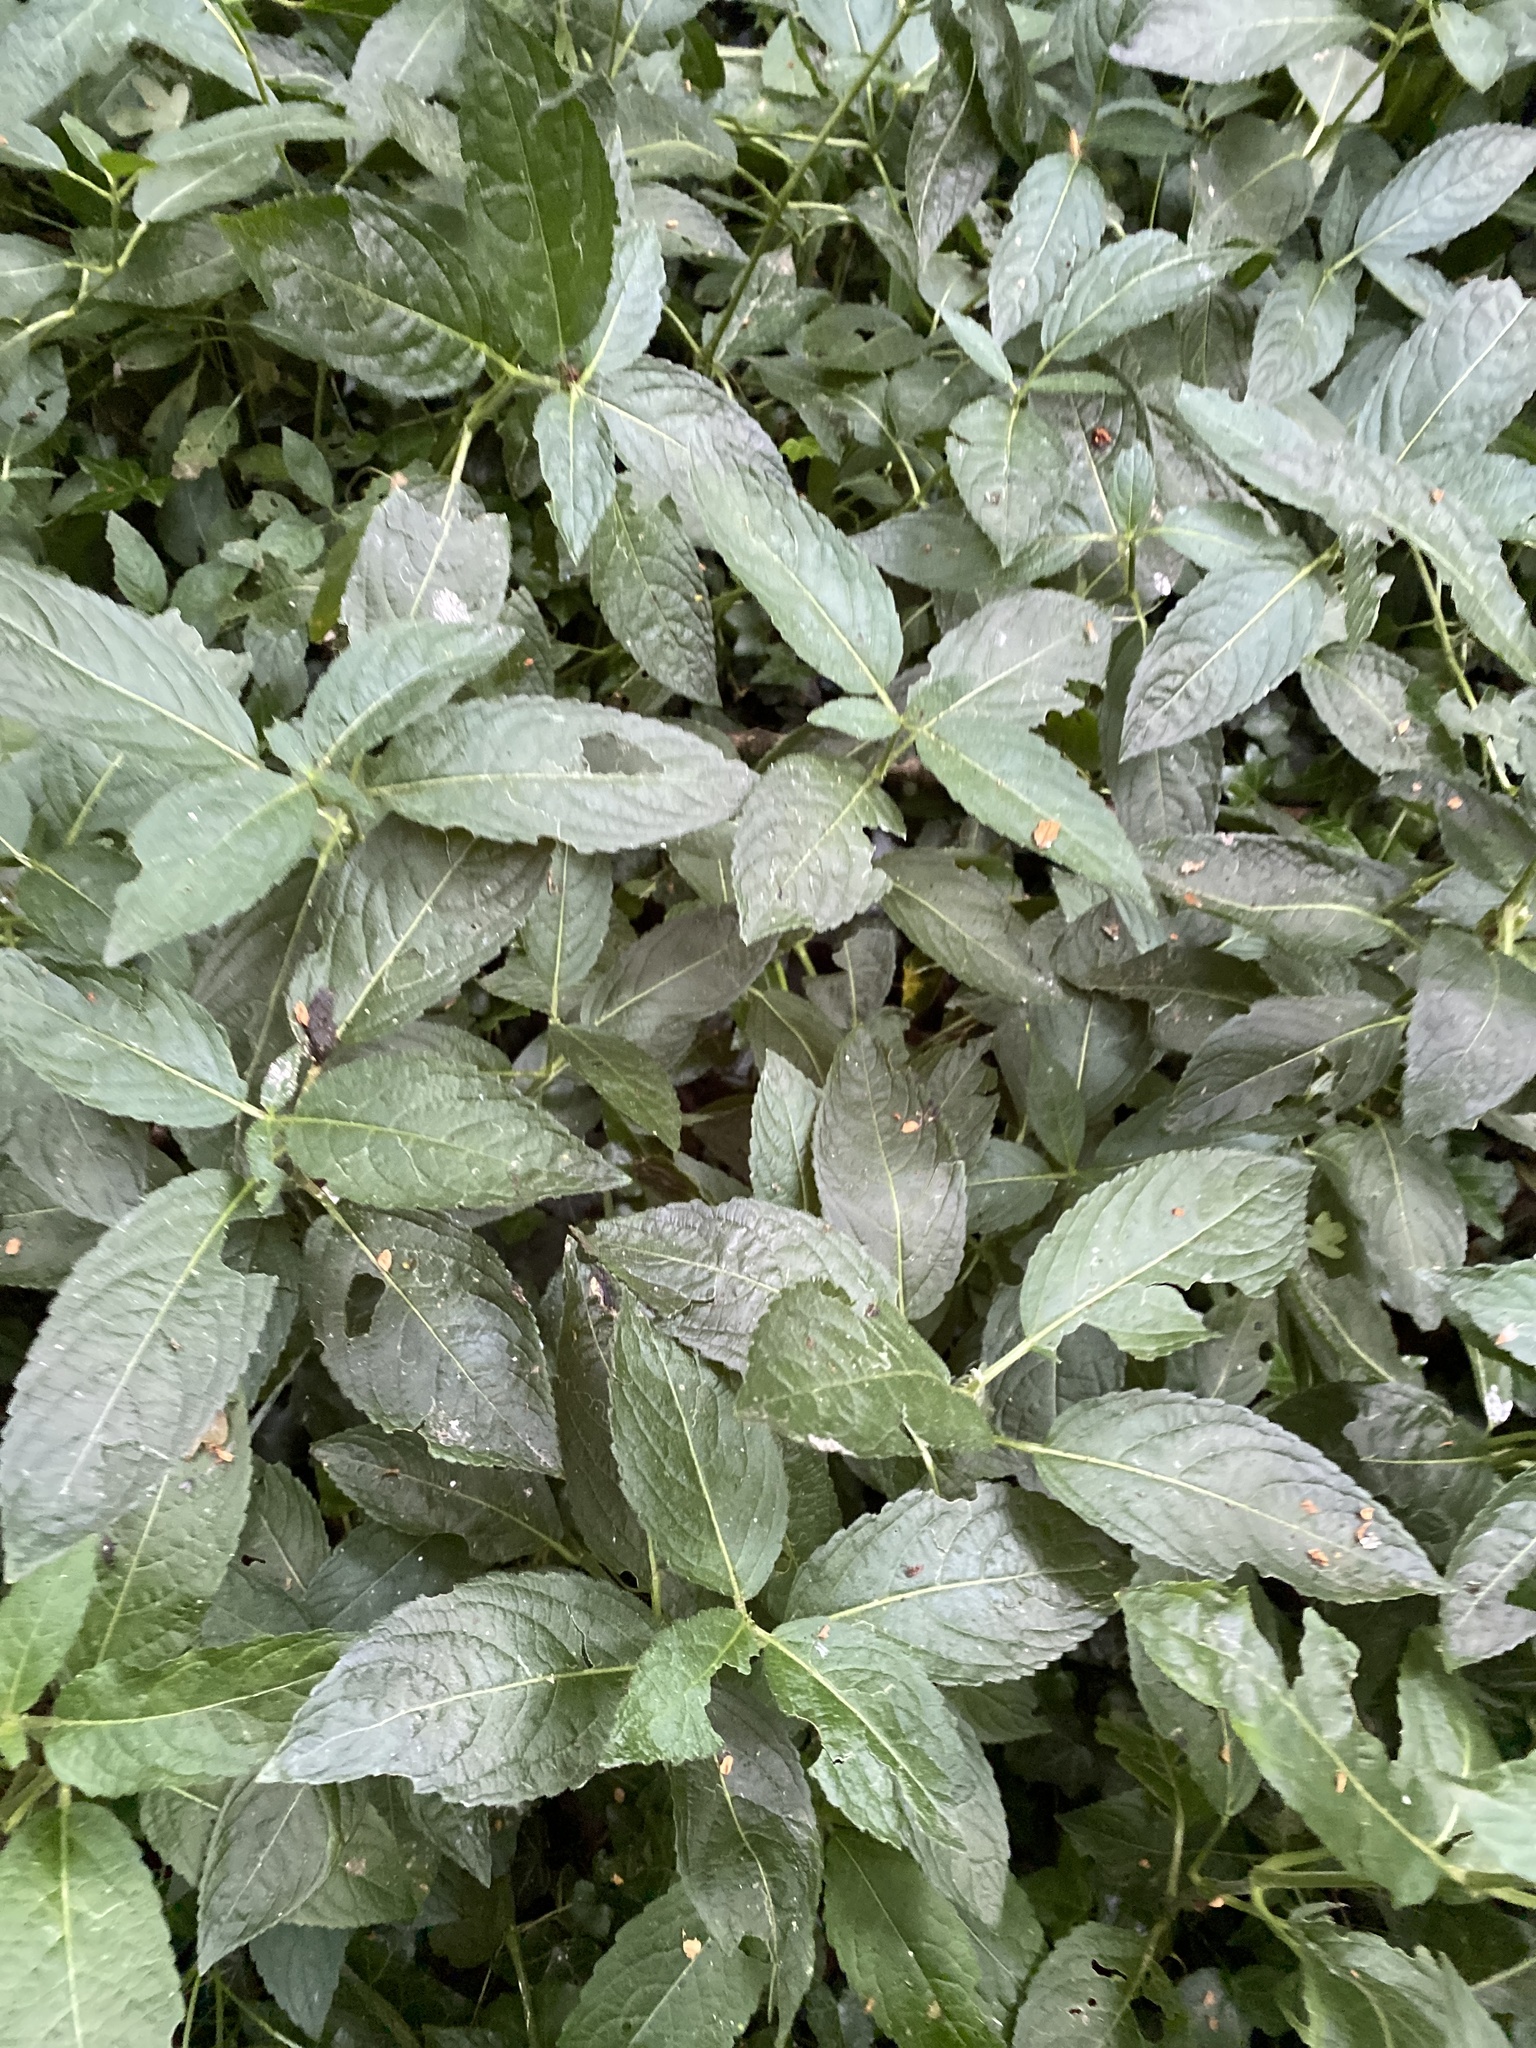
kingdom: Plantae
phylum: Tracheophyta
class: Magnoliopsida
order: Malpighiales
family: Euphorbiaceae
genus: Mercurialis
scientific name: Mercurialis perennis
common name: Dog mercury
